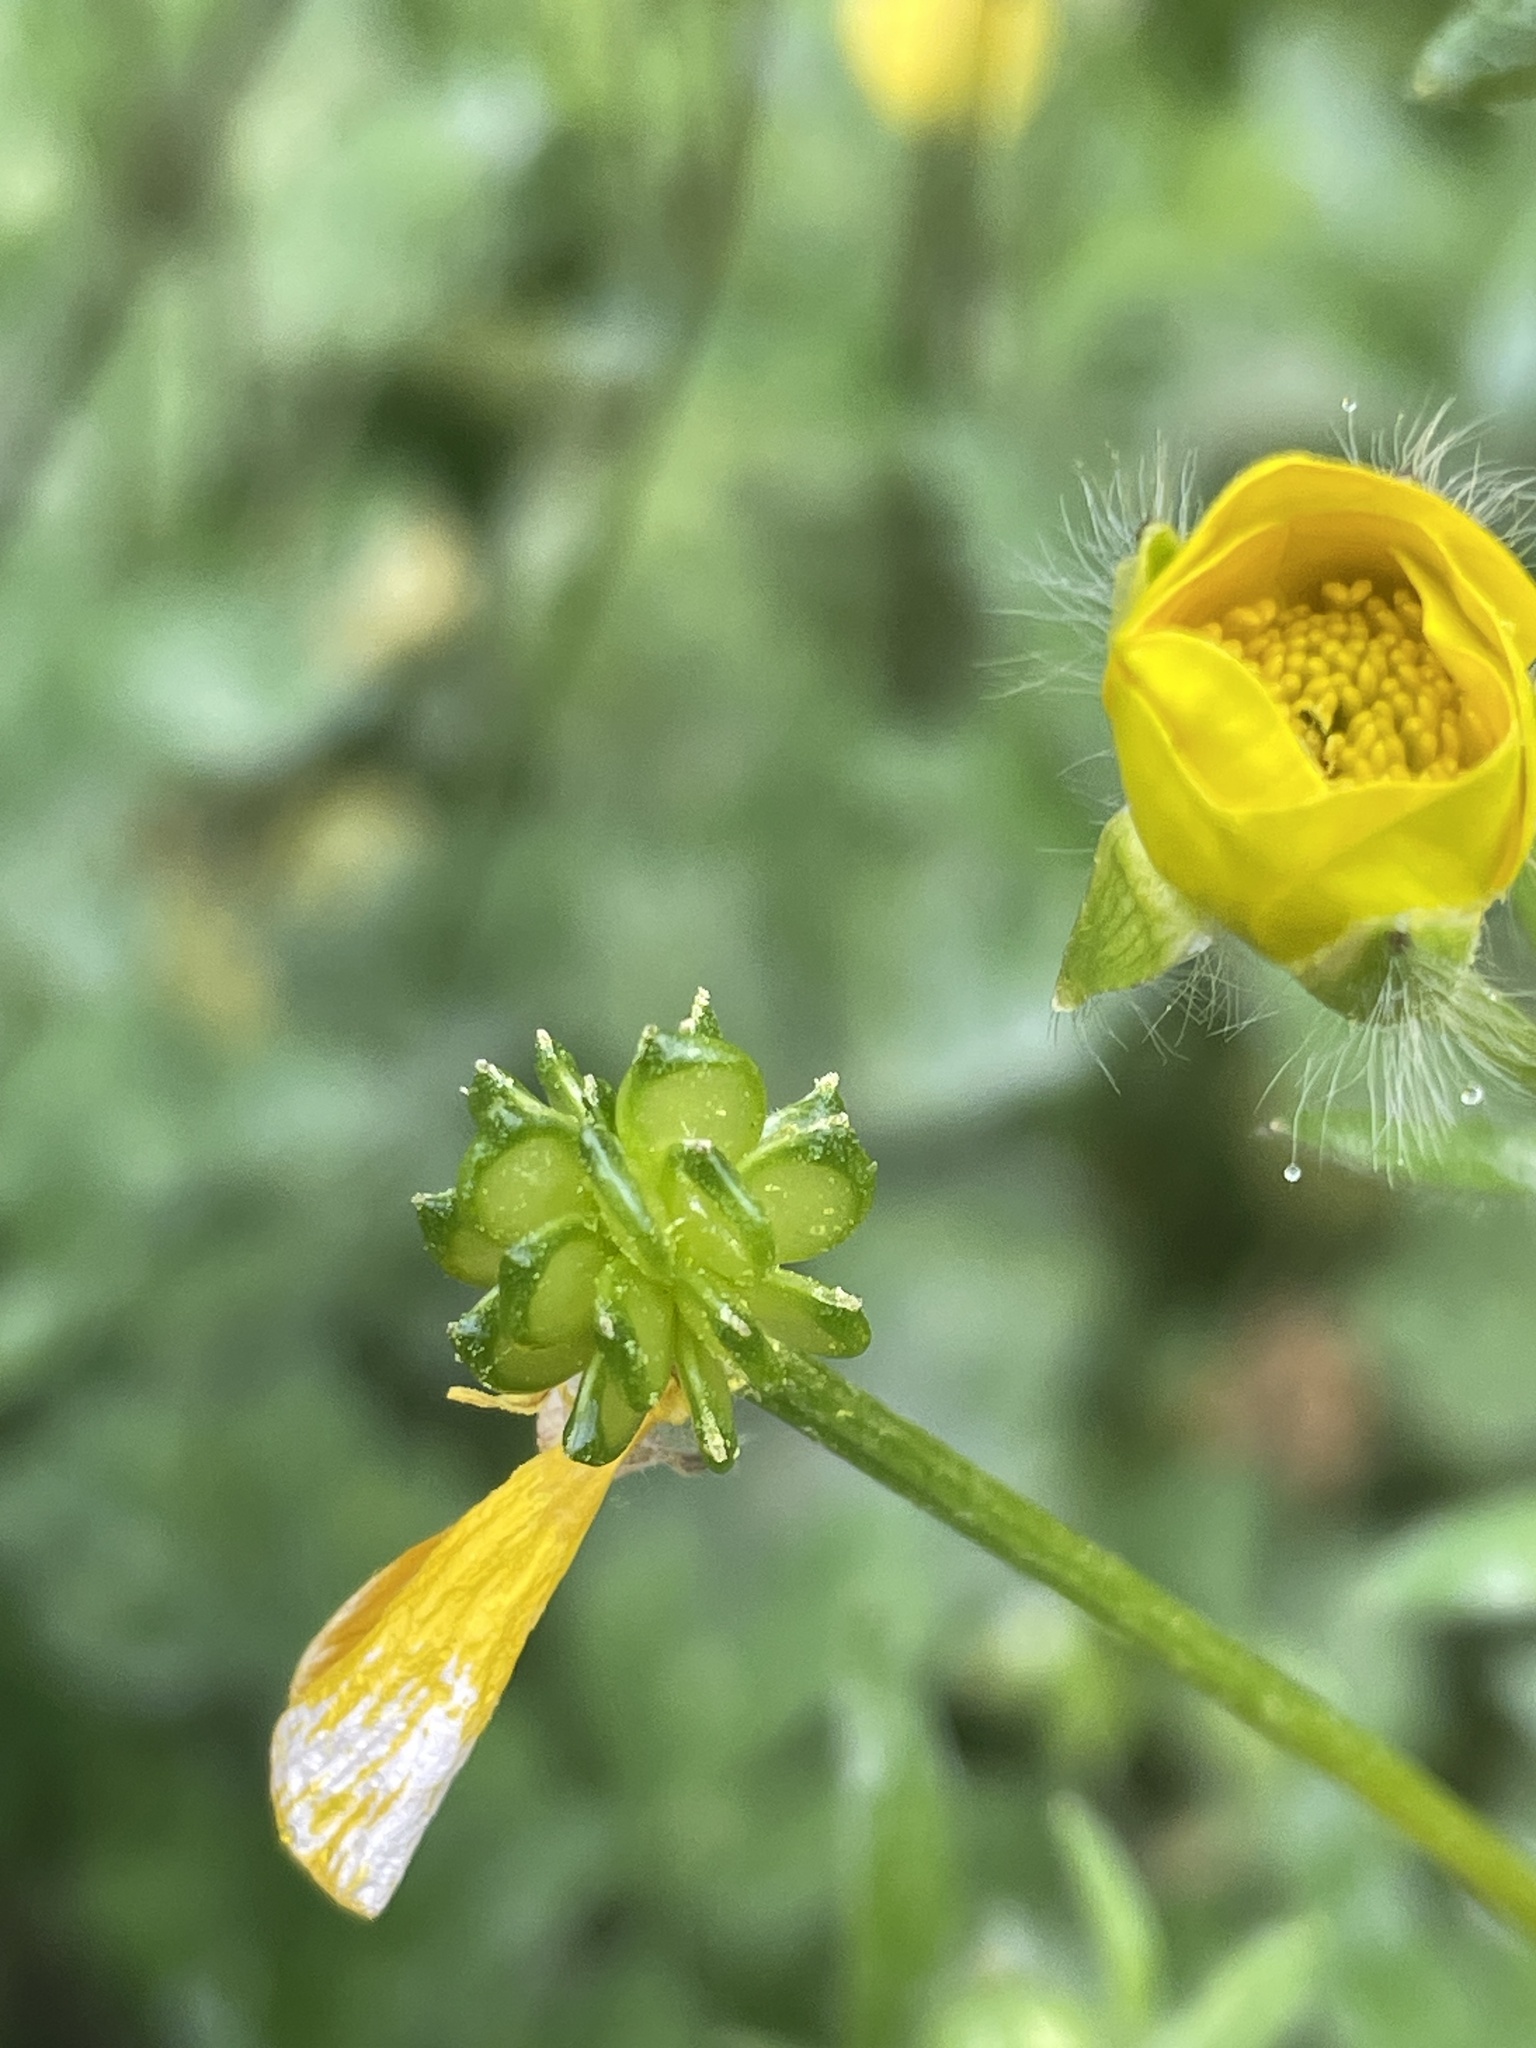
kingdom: Plantae
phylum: Tracheophyta
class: Magnoliopsida
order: Ranunculales
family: Ranunculaceae
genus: Ranunculus
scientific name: Ranunculus bulbosus
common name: Bulbous buttercup
